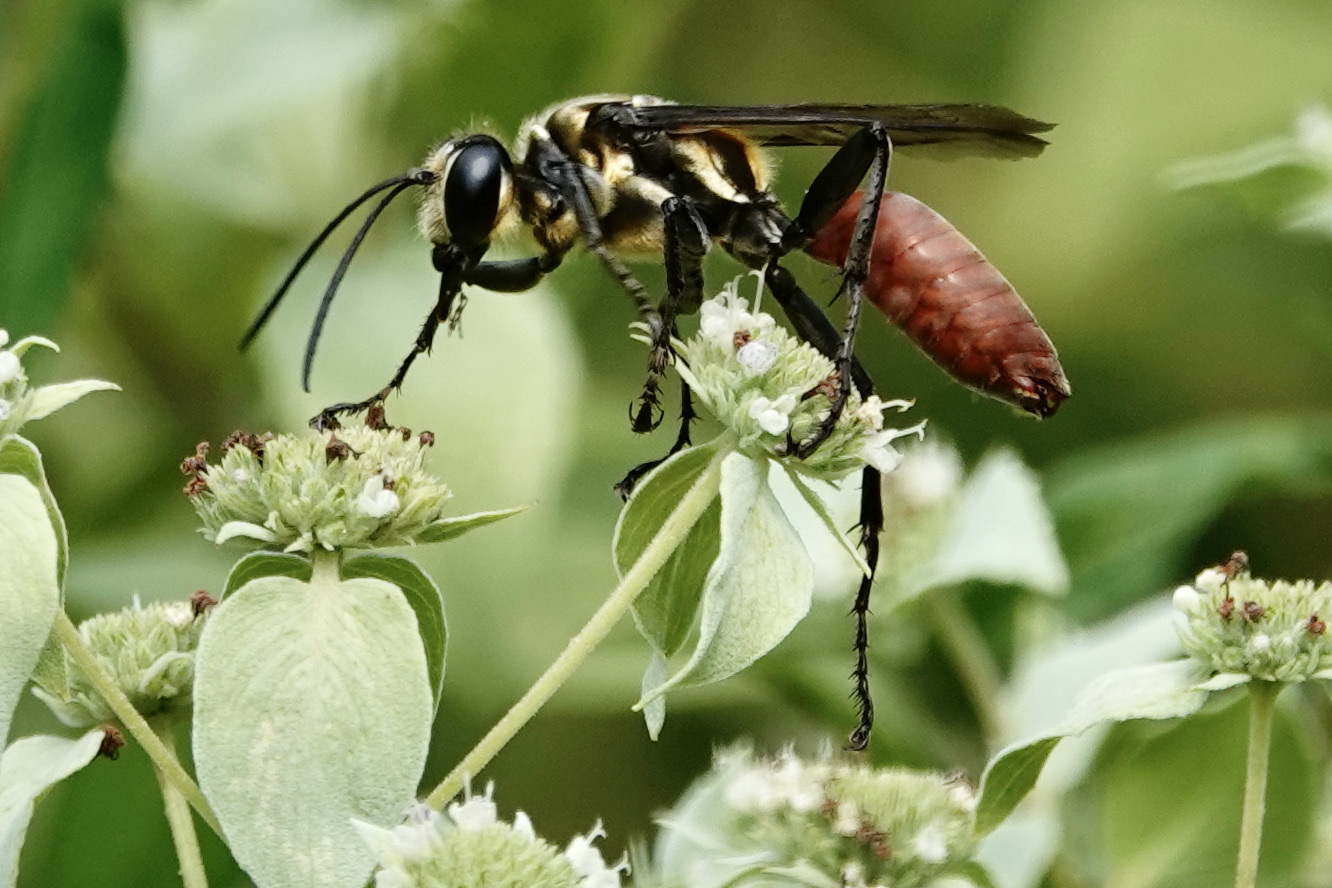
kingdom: Animalia
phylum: Arthropoda
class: Insecta
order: Hymenoptera
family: Sphecidae
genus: Sphex
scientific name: Sphex habenus
